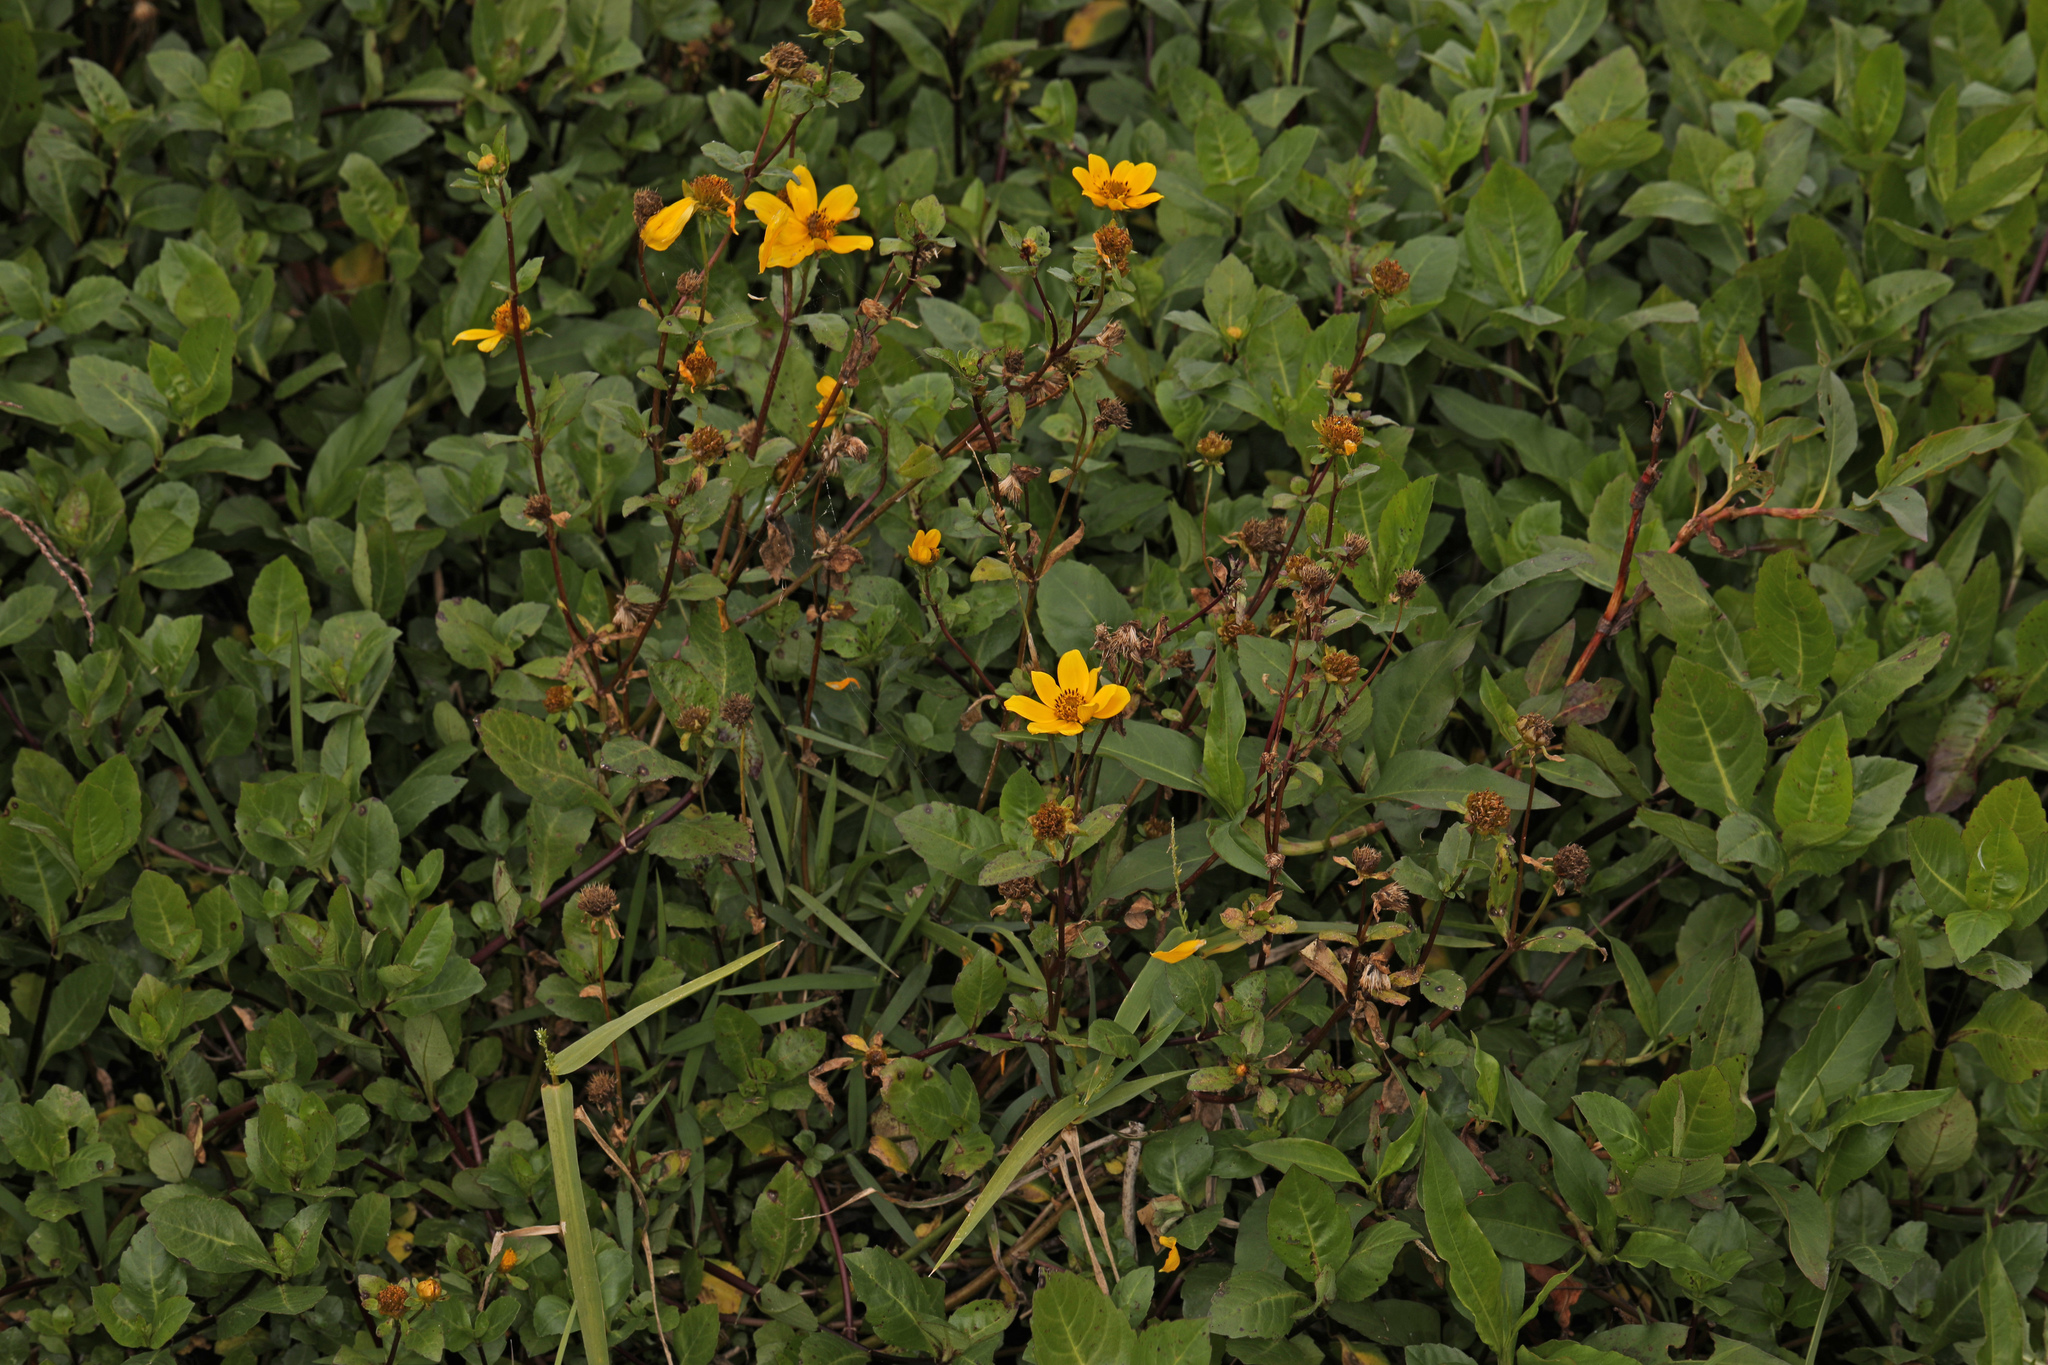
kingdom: Plantae
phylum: Tracheophyta
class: Magnoliopsida
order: Asterales
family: Asteraceae
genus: Bidens
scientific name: Bidens laevis
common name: Larger bur-marigold
